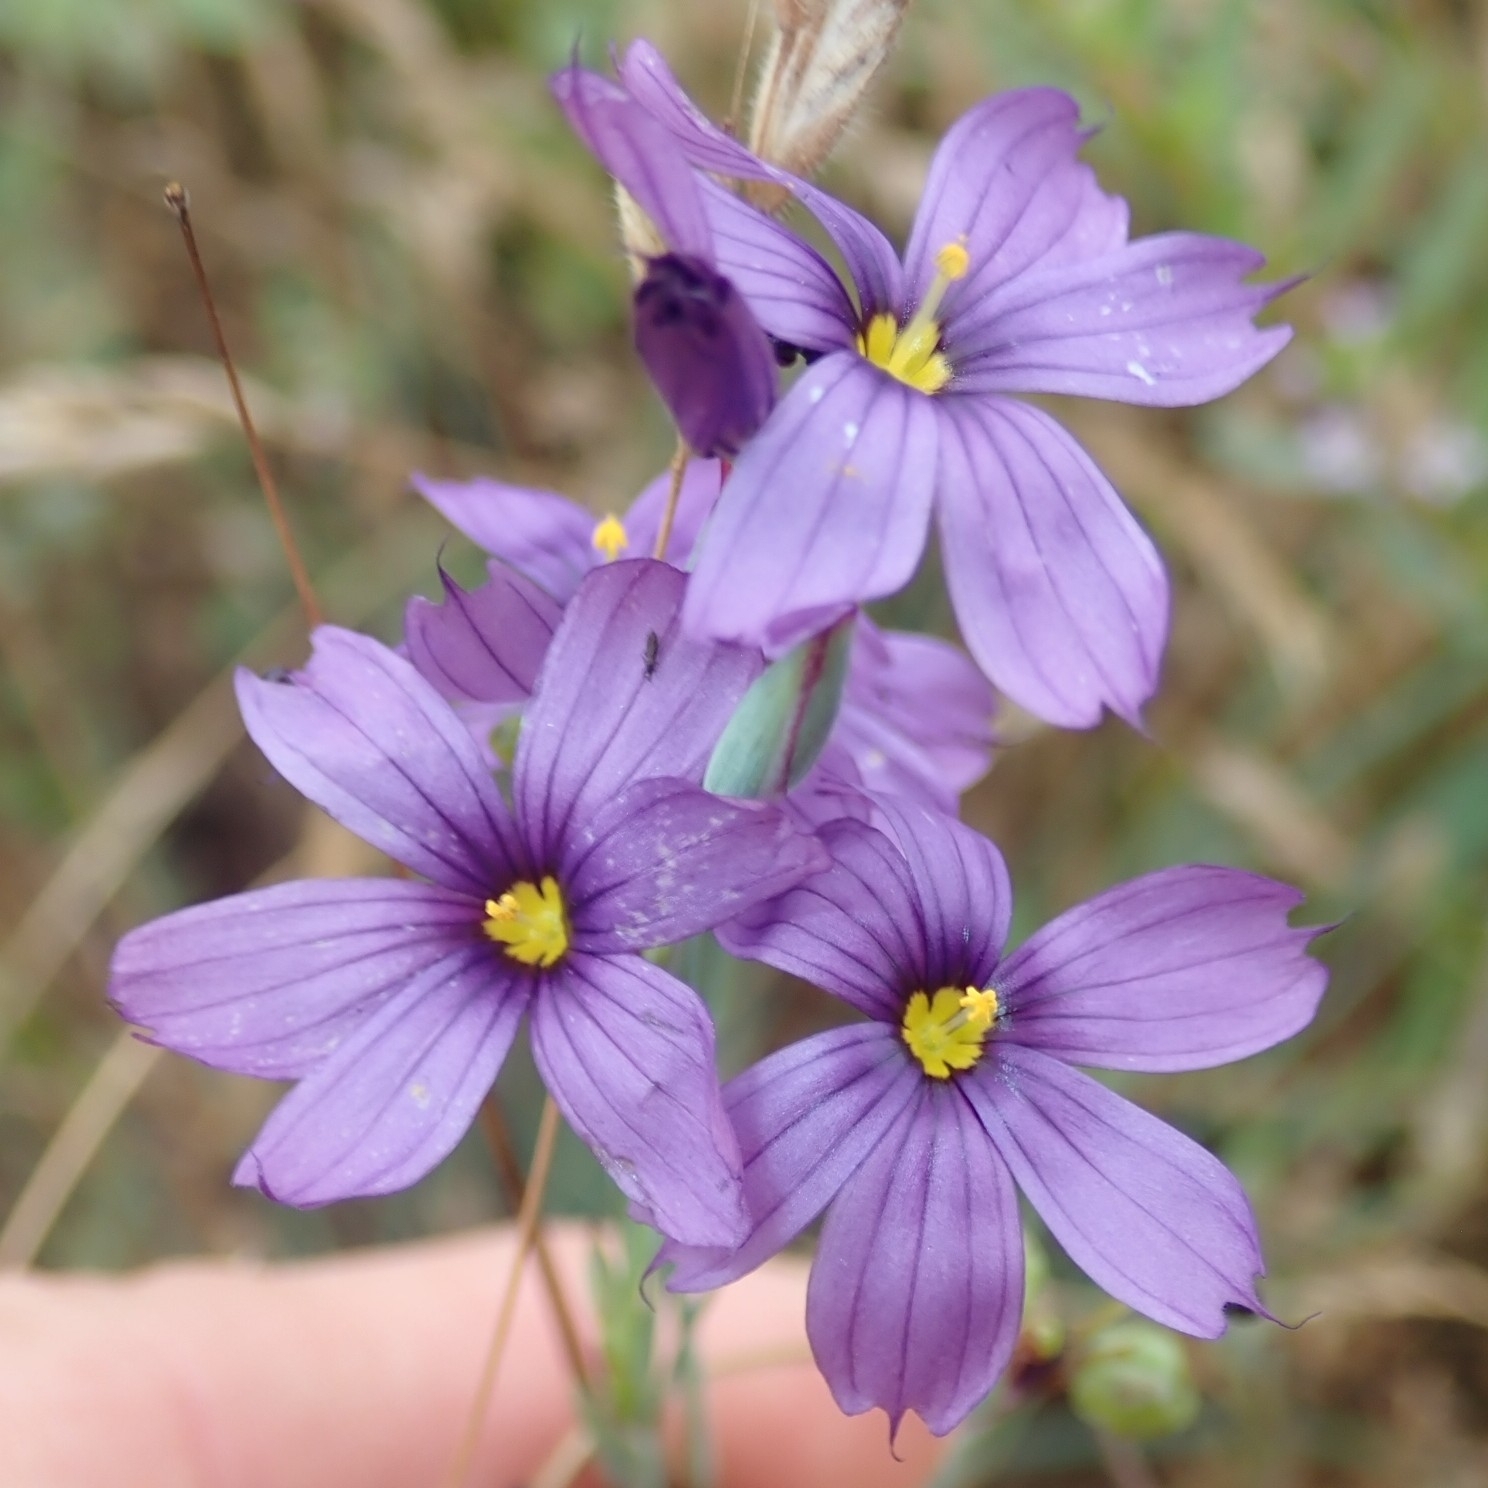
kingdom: Plantae
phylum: Tracheophyta
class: Liliopsida
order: Asparagales
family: Iridaceae
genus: Sisyrinchium
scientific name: Sisyrinchium bellum
